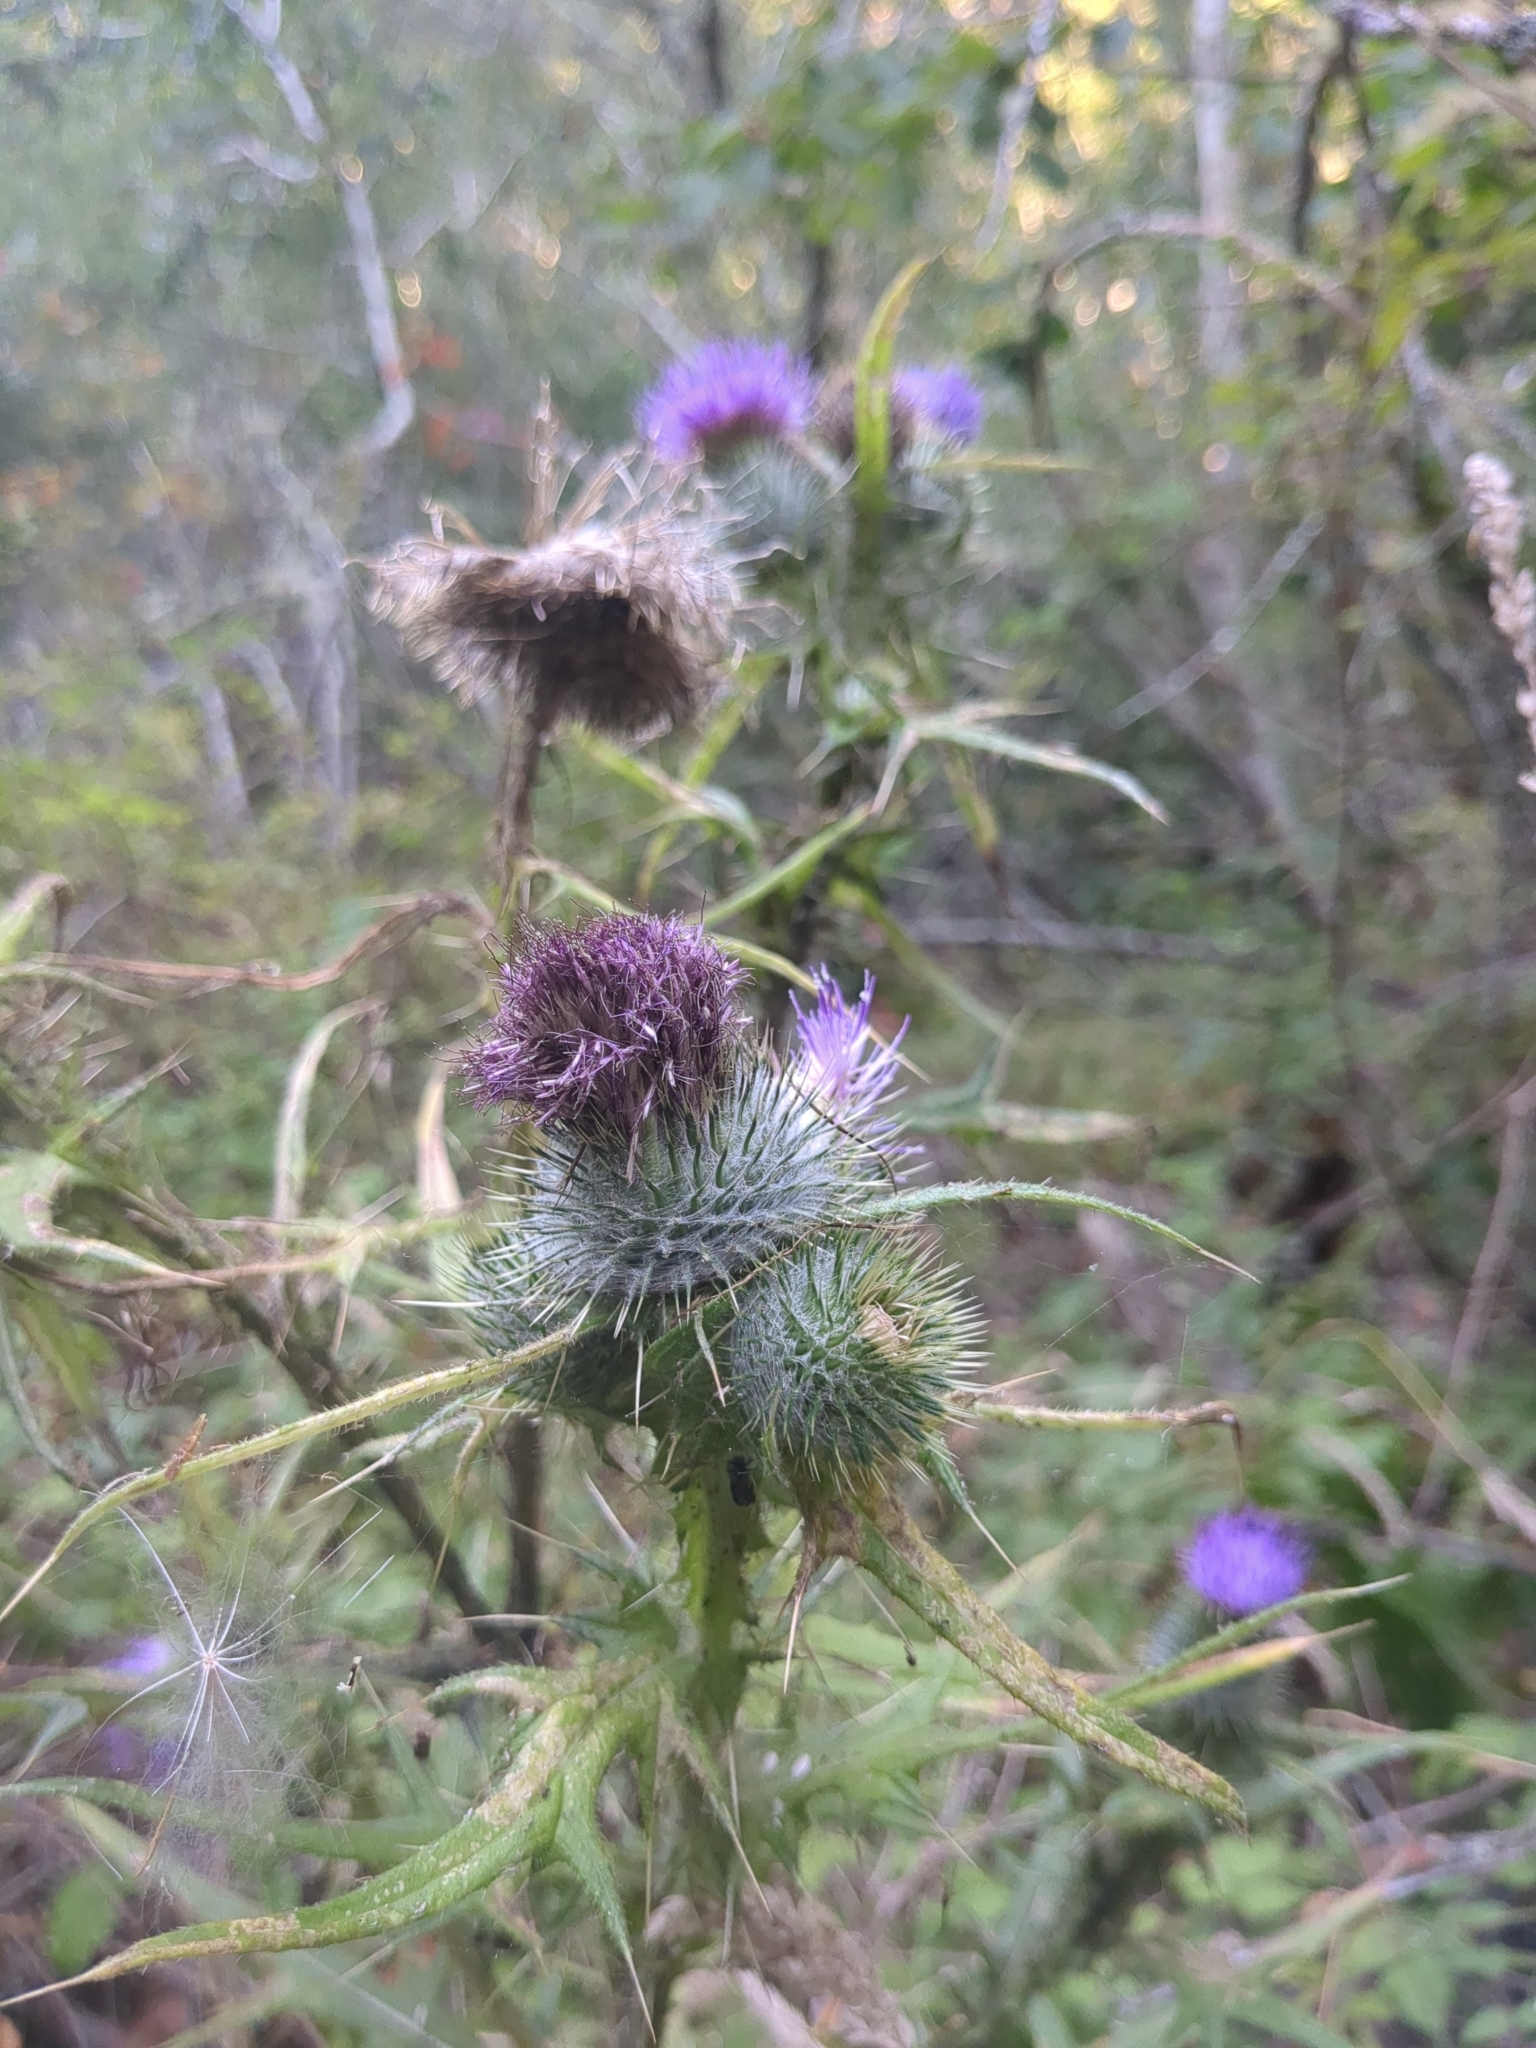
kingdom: Plantae
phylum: Tracheophyta
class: Magnoliopsida
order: Asterales
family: Asteraceae
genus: Cirsium
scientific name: Cirsium vulgare
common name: Bull thistle
